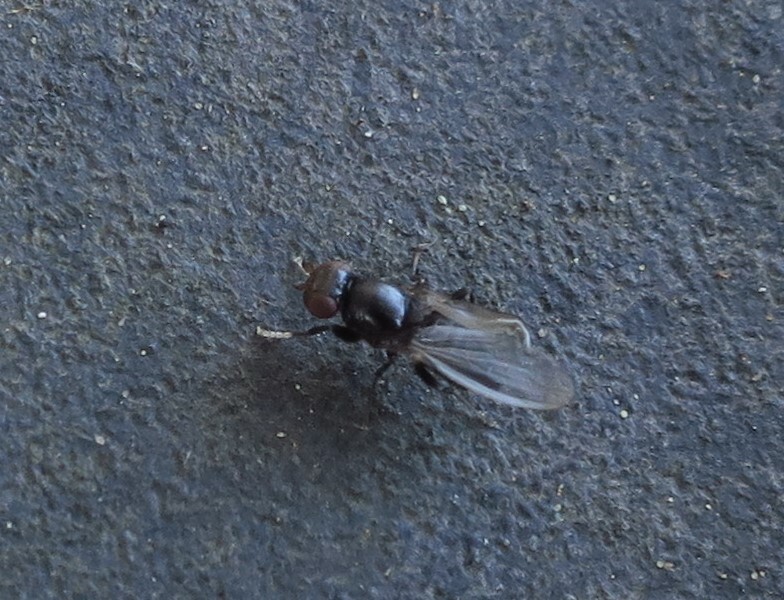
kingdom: Animalia
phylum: Arthropoda
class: Insecta
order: Diptera
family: Cypselosomatidae
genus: Pseudopomyza
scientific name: Pseudopomyza flavitarsis
